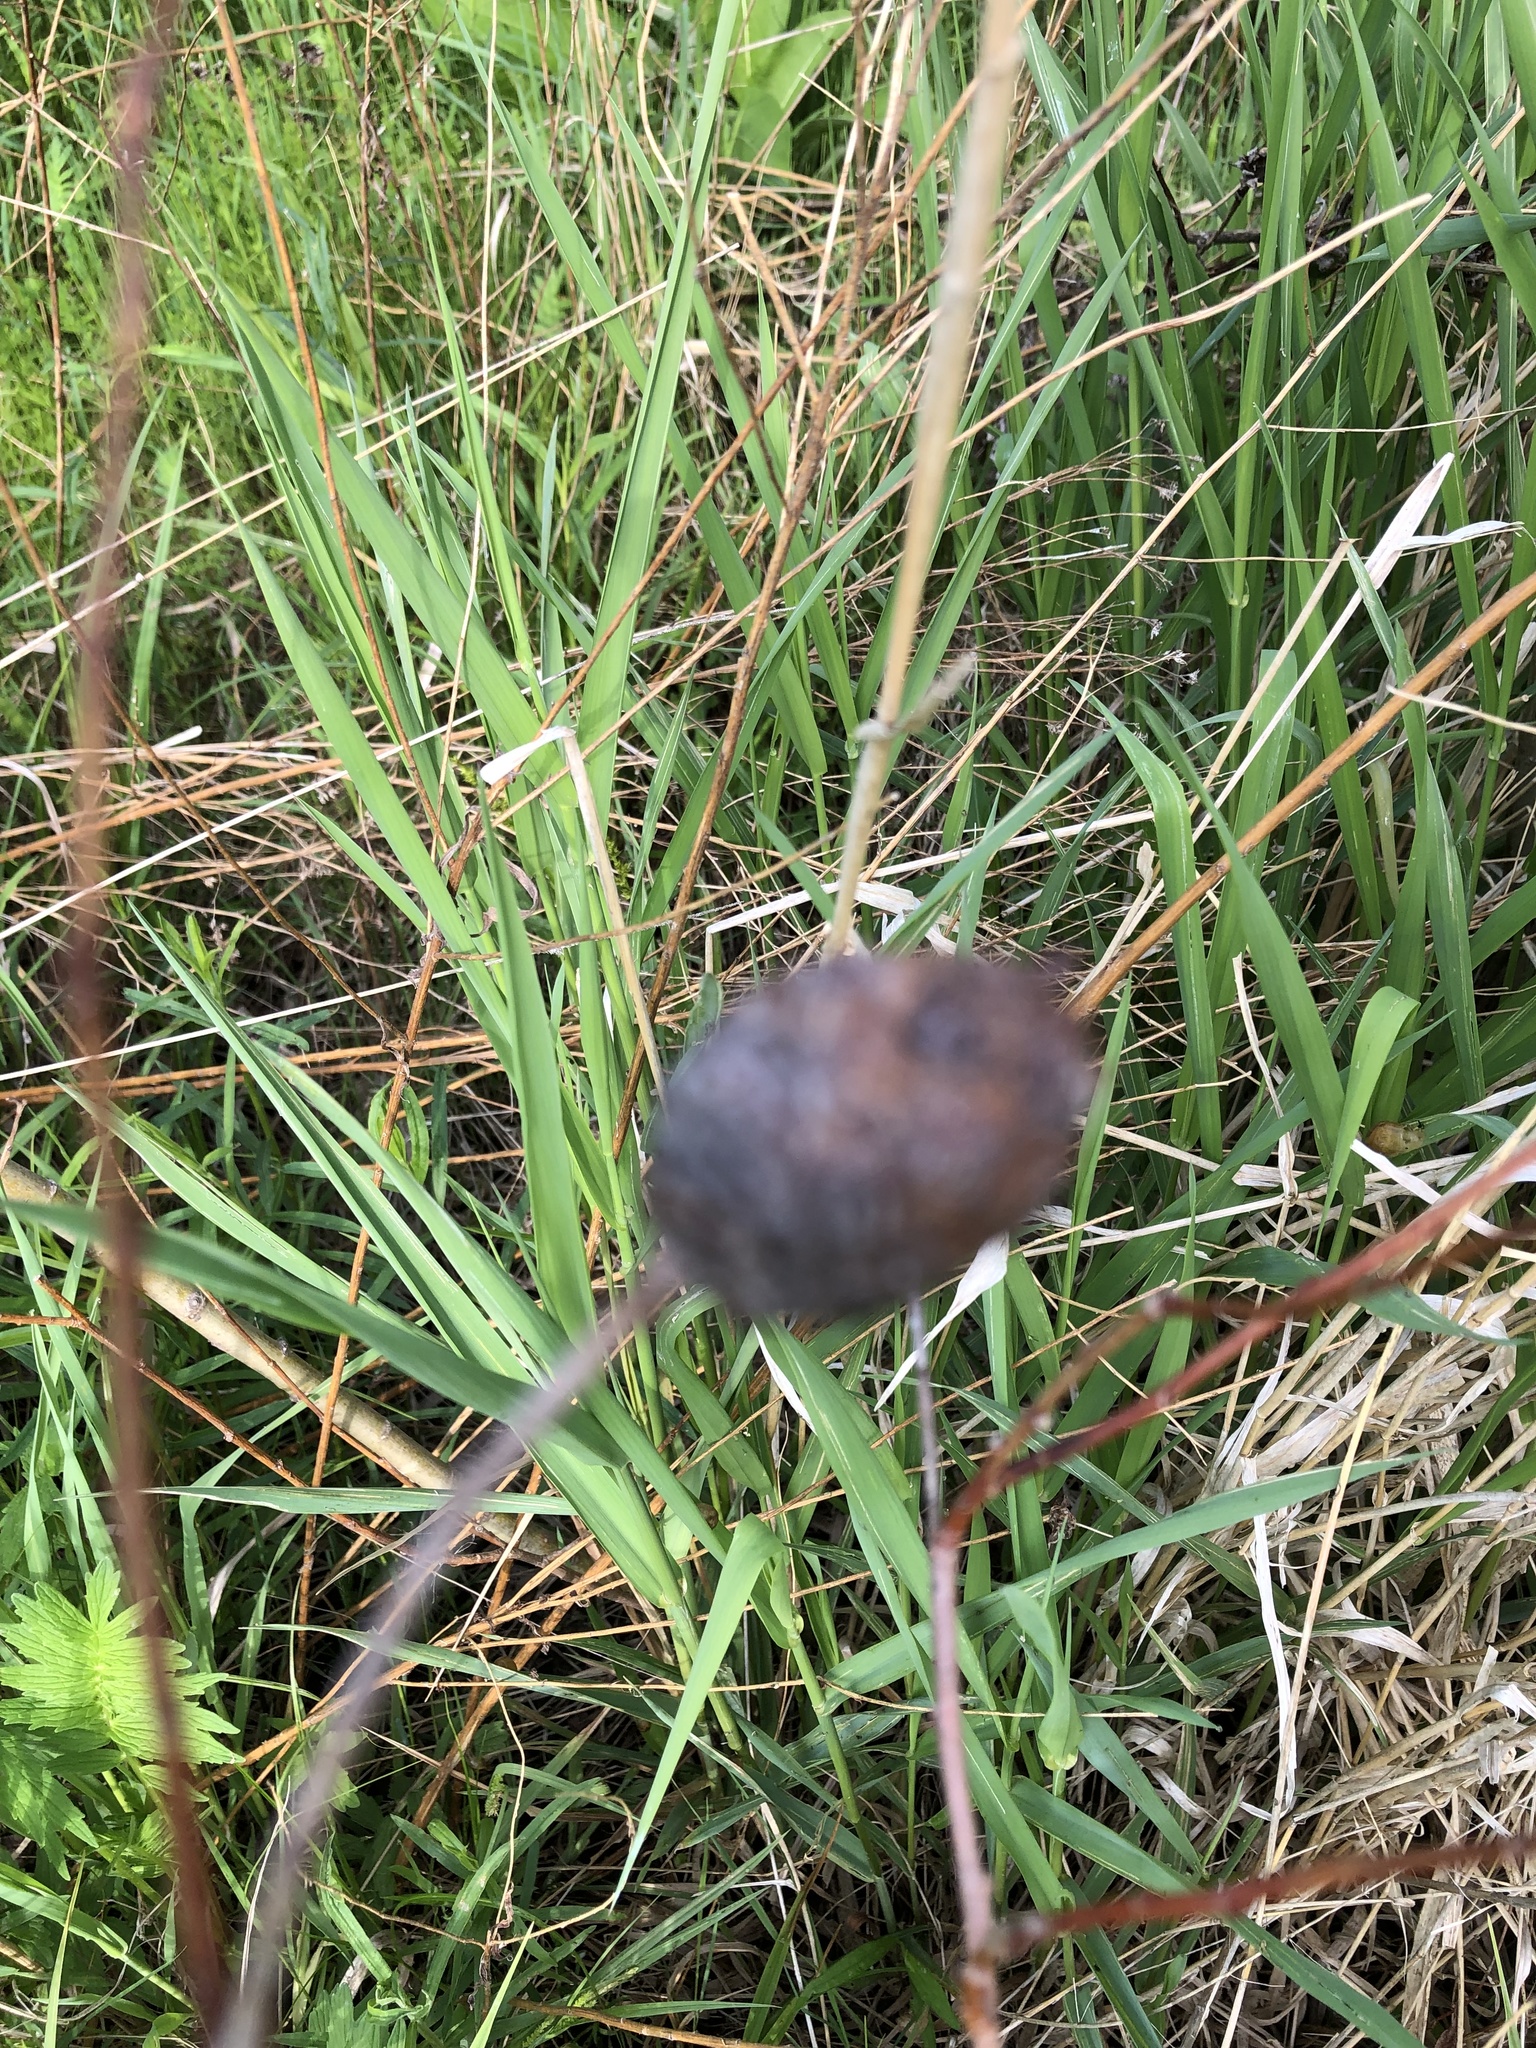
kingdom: Animalia
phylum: Arthropoda
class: Insecta
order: Diptera
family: Cecidomyiidae
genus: Rabdophaga
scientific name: Rabdophaga strobiloides
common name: Willow pinecone gall midge
